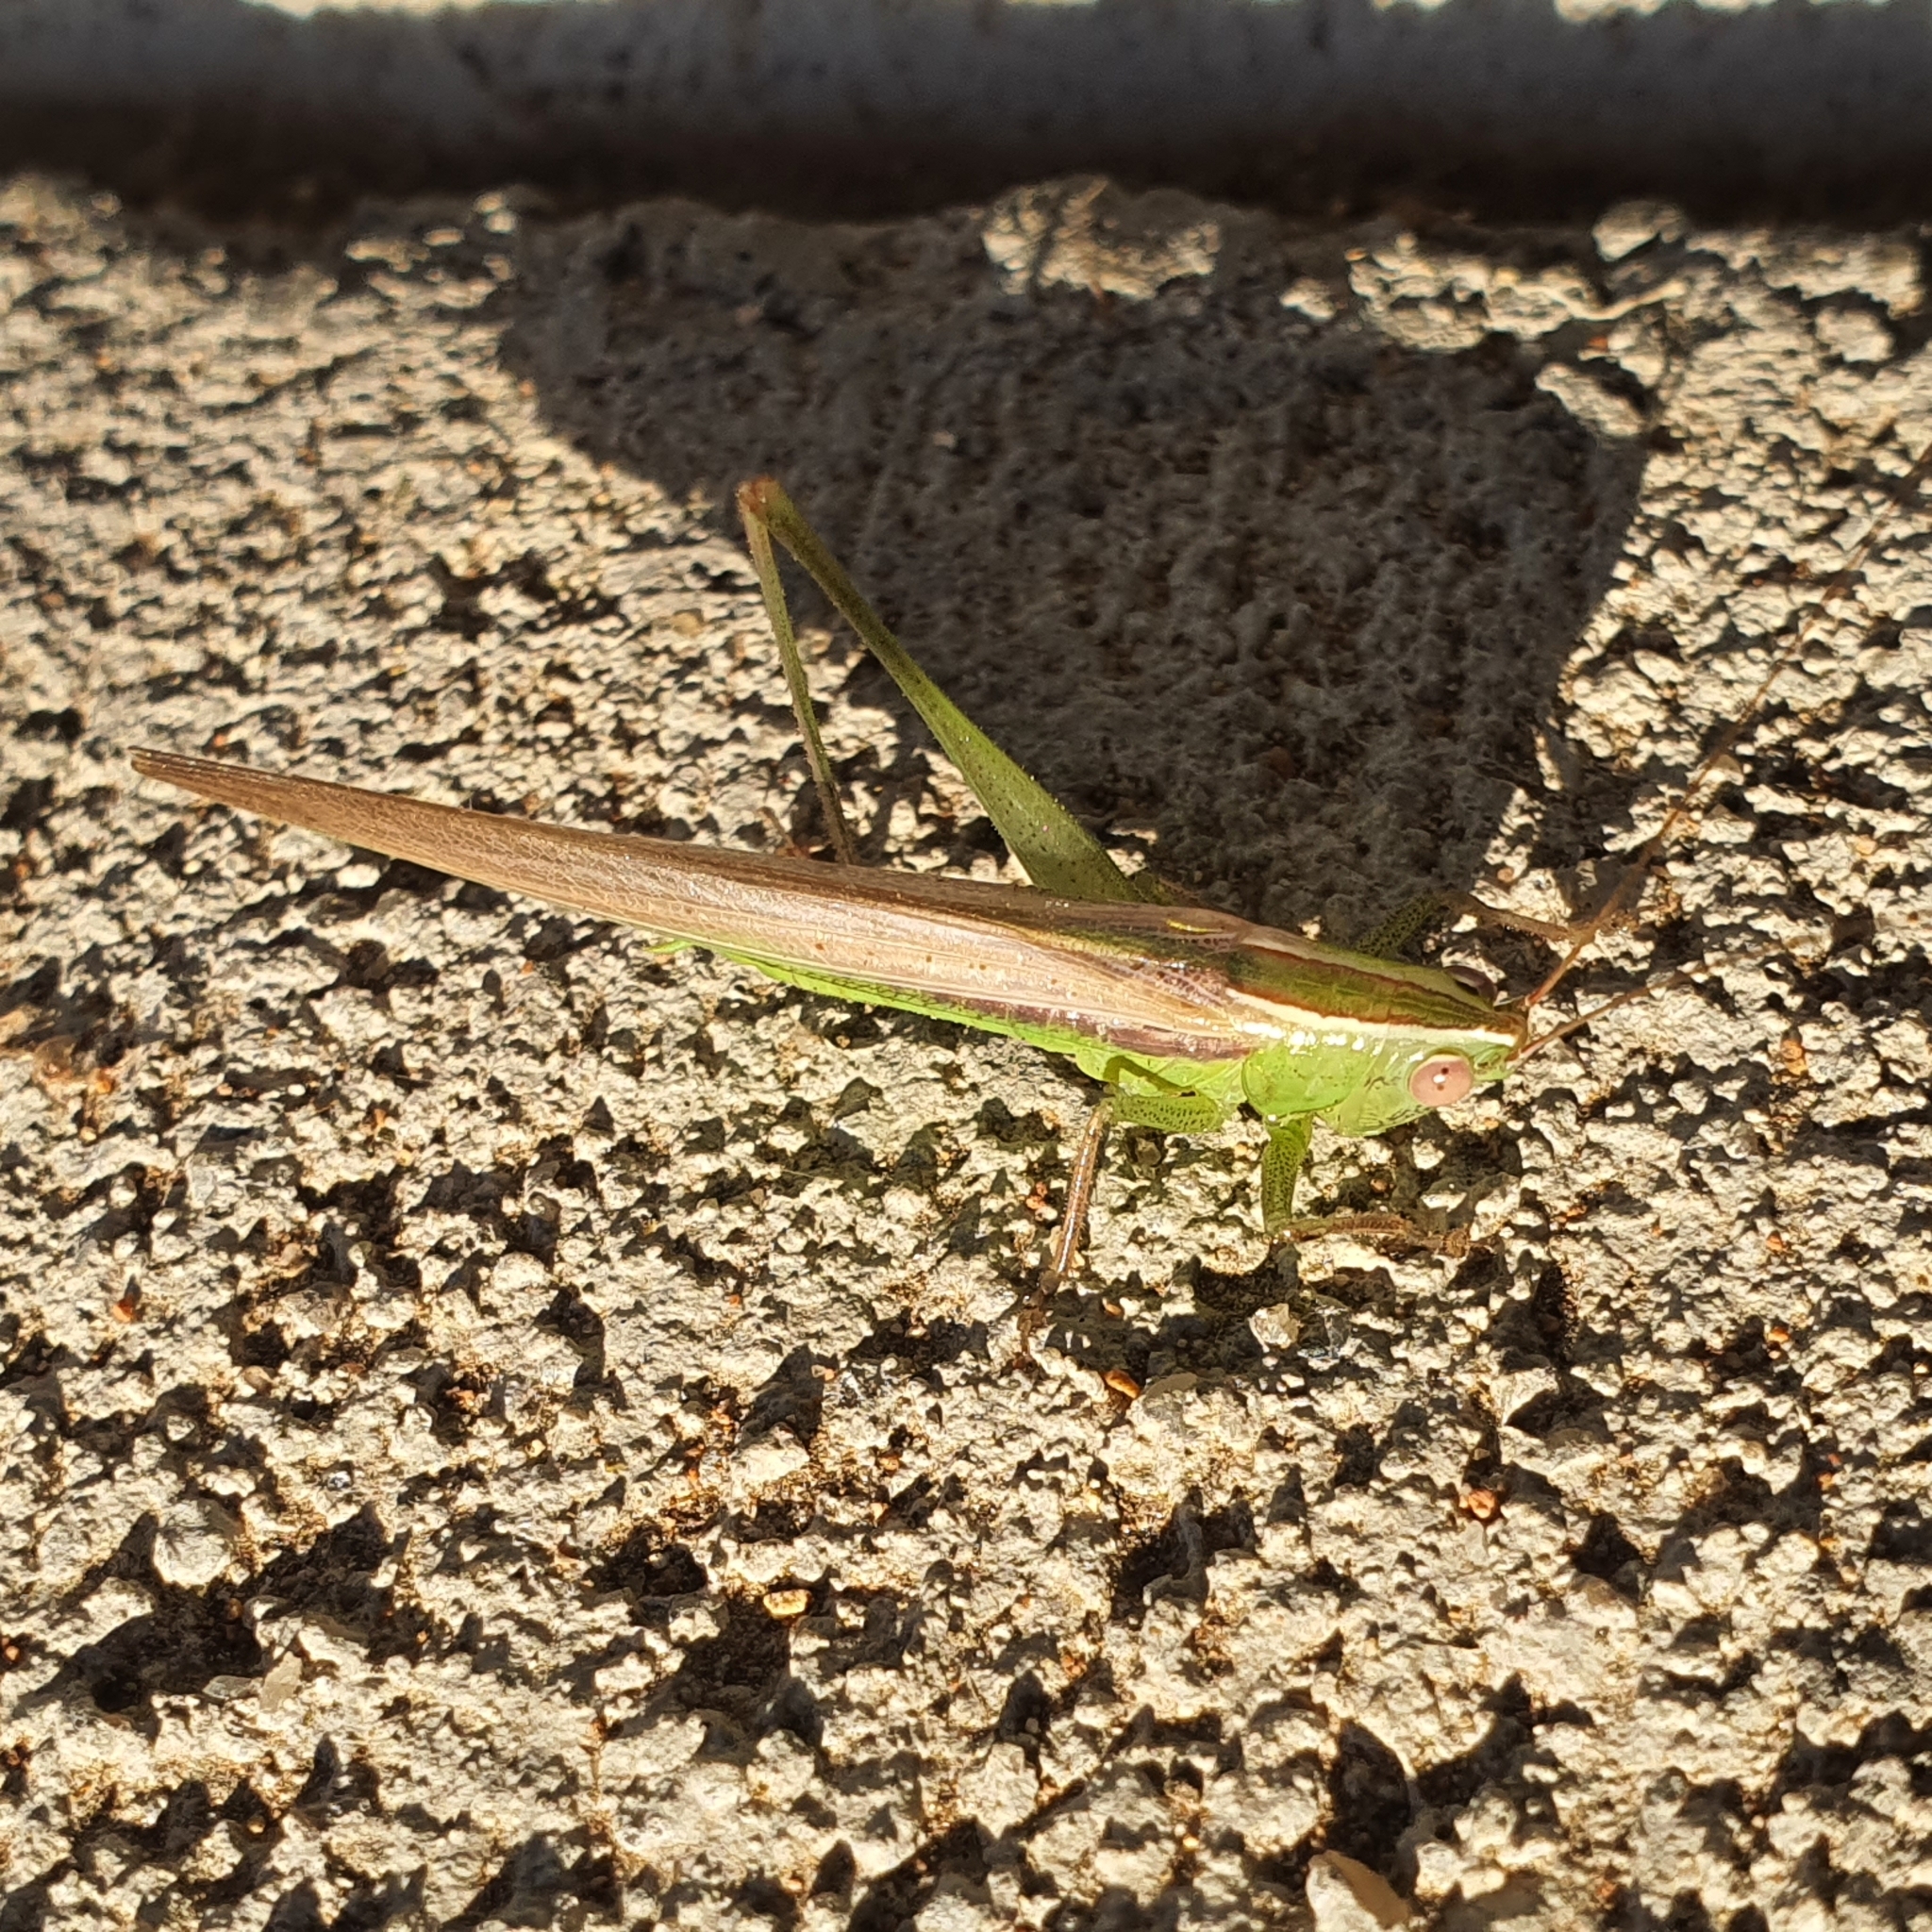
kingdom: Animalia
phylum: Arthropoda
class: Insecta
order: Orthoptera
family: Tettigoniidae
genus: Conocephalus
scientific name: Conocephalus upoluensis
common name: Upolu meadow katydid
